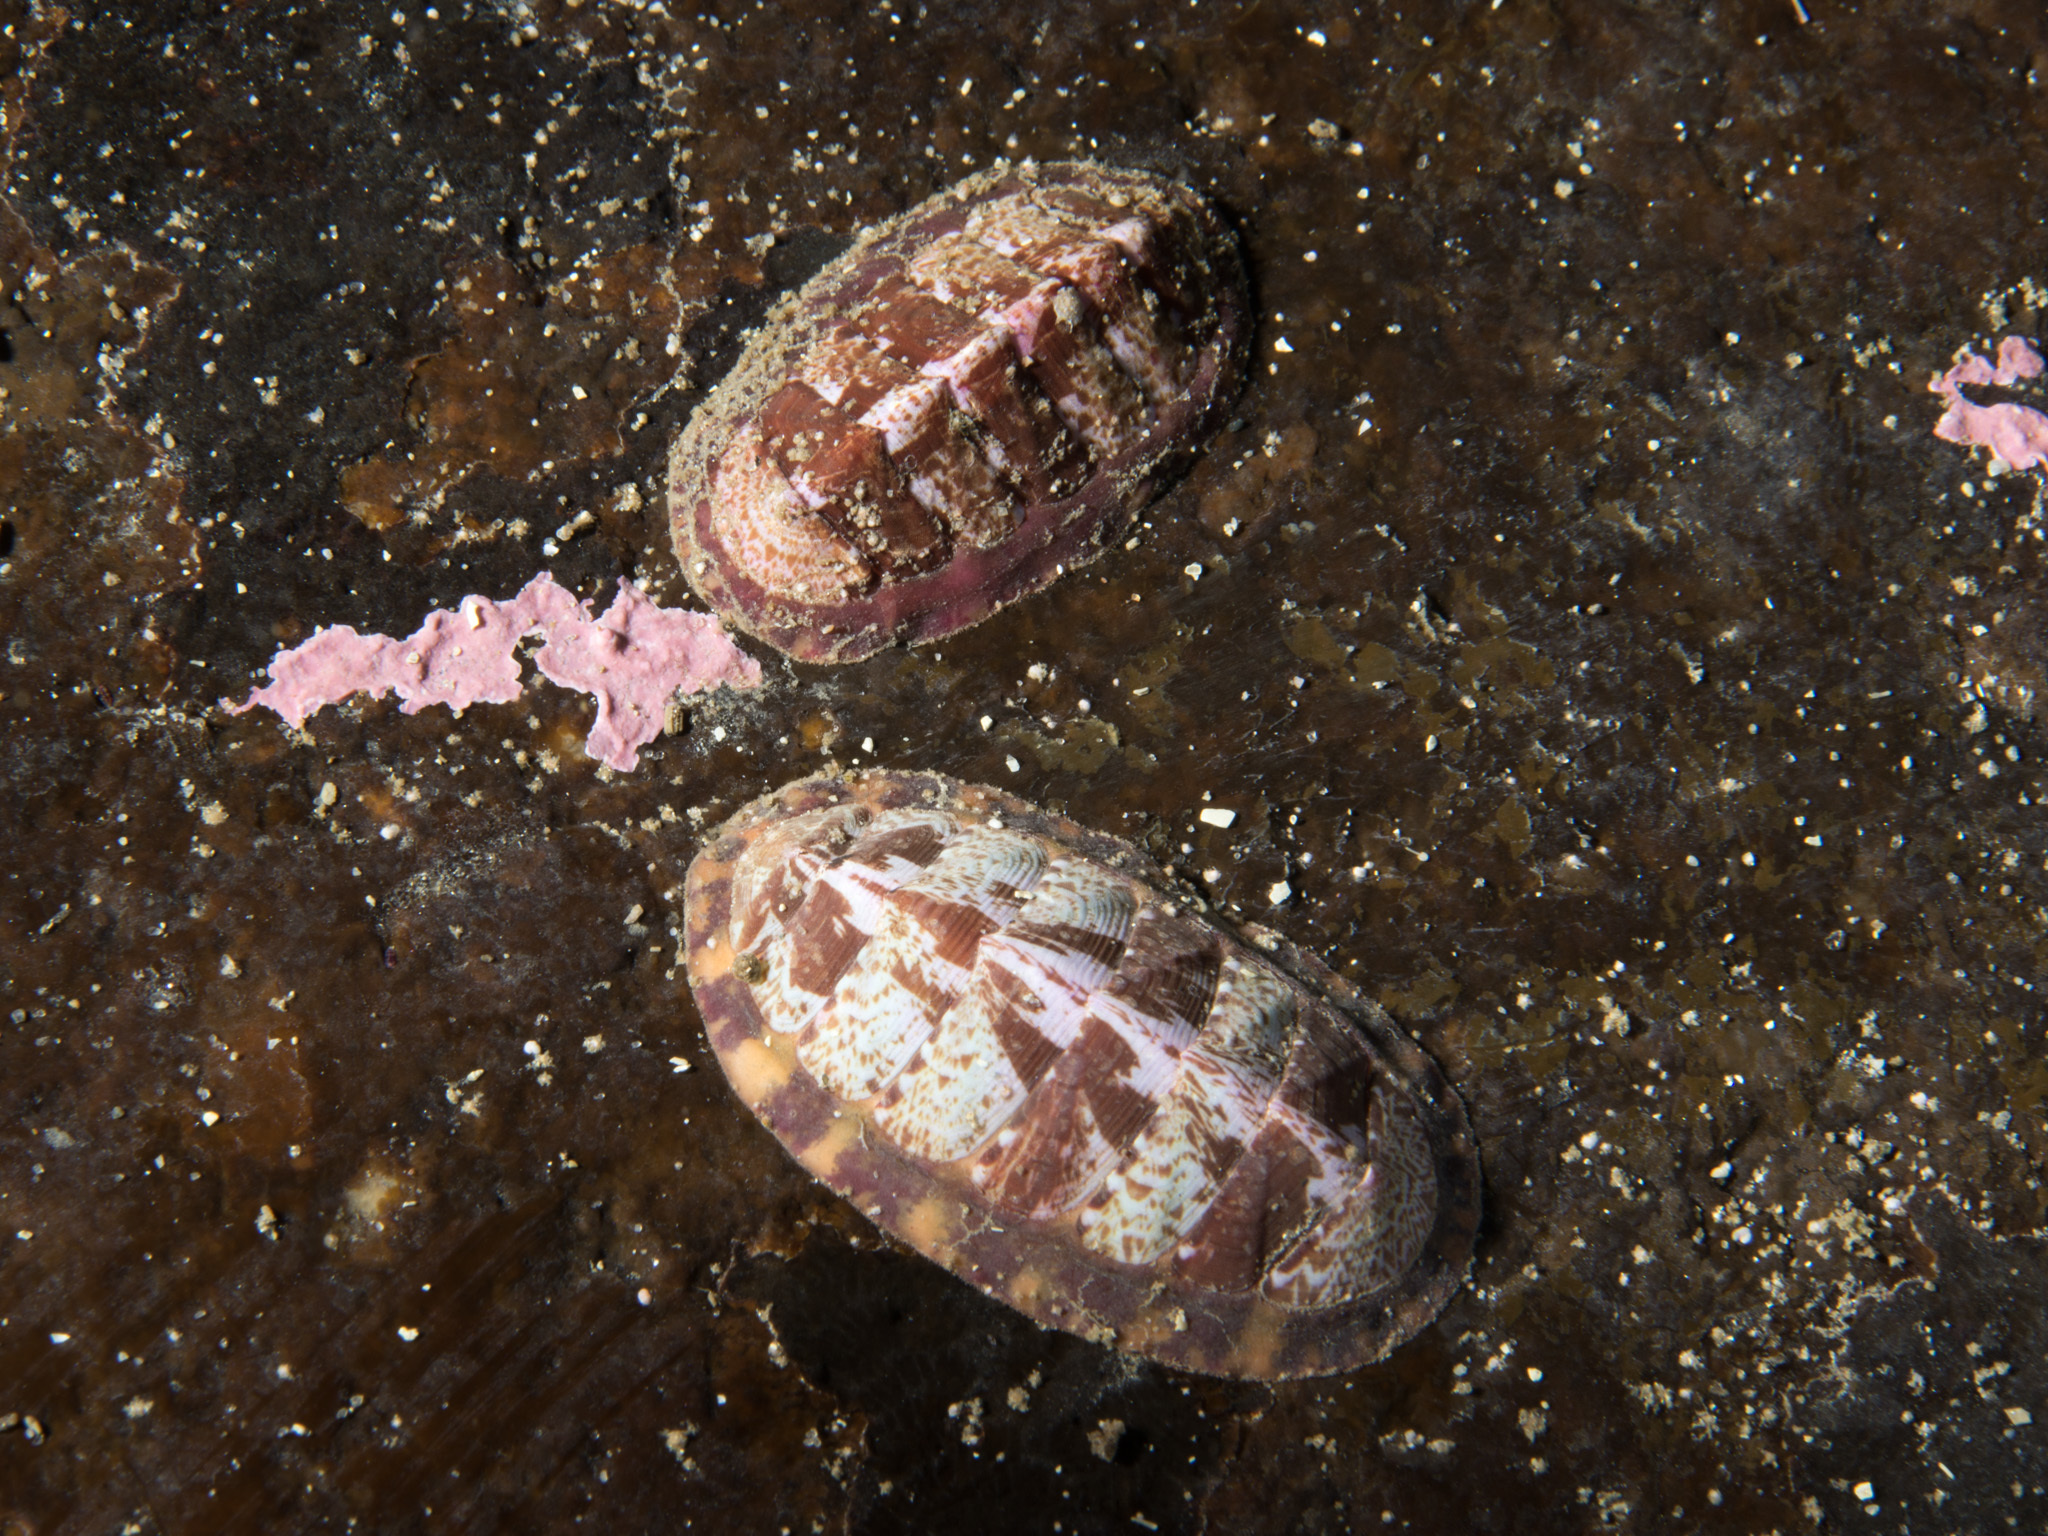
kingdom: Animalia
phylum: Mollusca
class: Polyplacophora
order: Chitonida
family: Tonicellidae
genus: Tonicella
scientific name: Tonicella marmorea
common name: Lined red chiton
